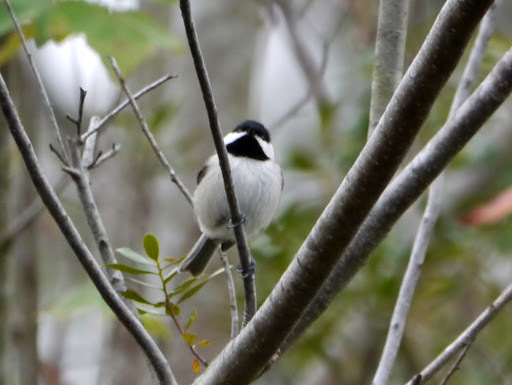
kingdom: Animalia
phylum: Chordata
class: Aves
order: Passeriformes
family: Paridae
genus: Poecile
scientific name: Poecile carolinensis
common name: Carolina chickadee
